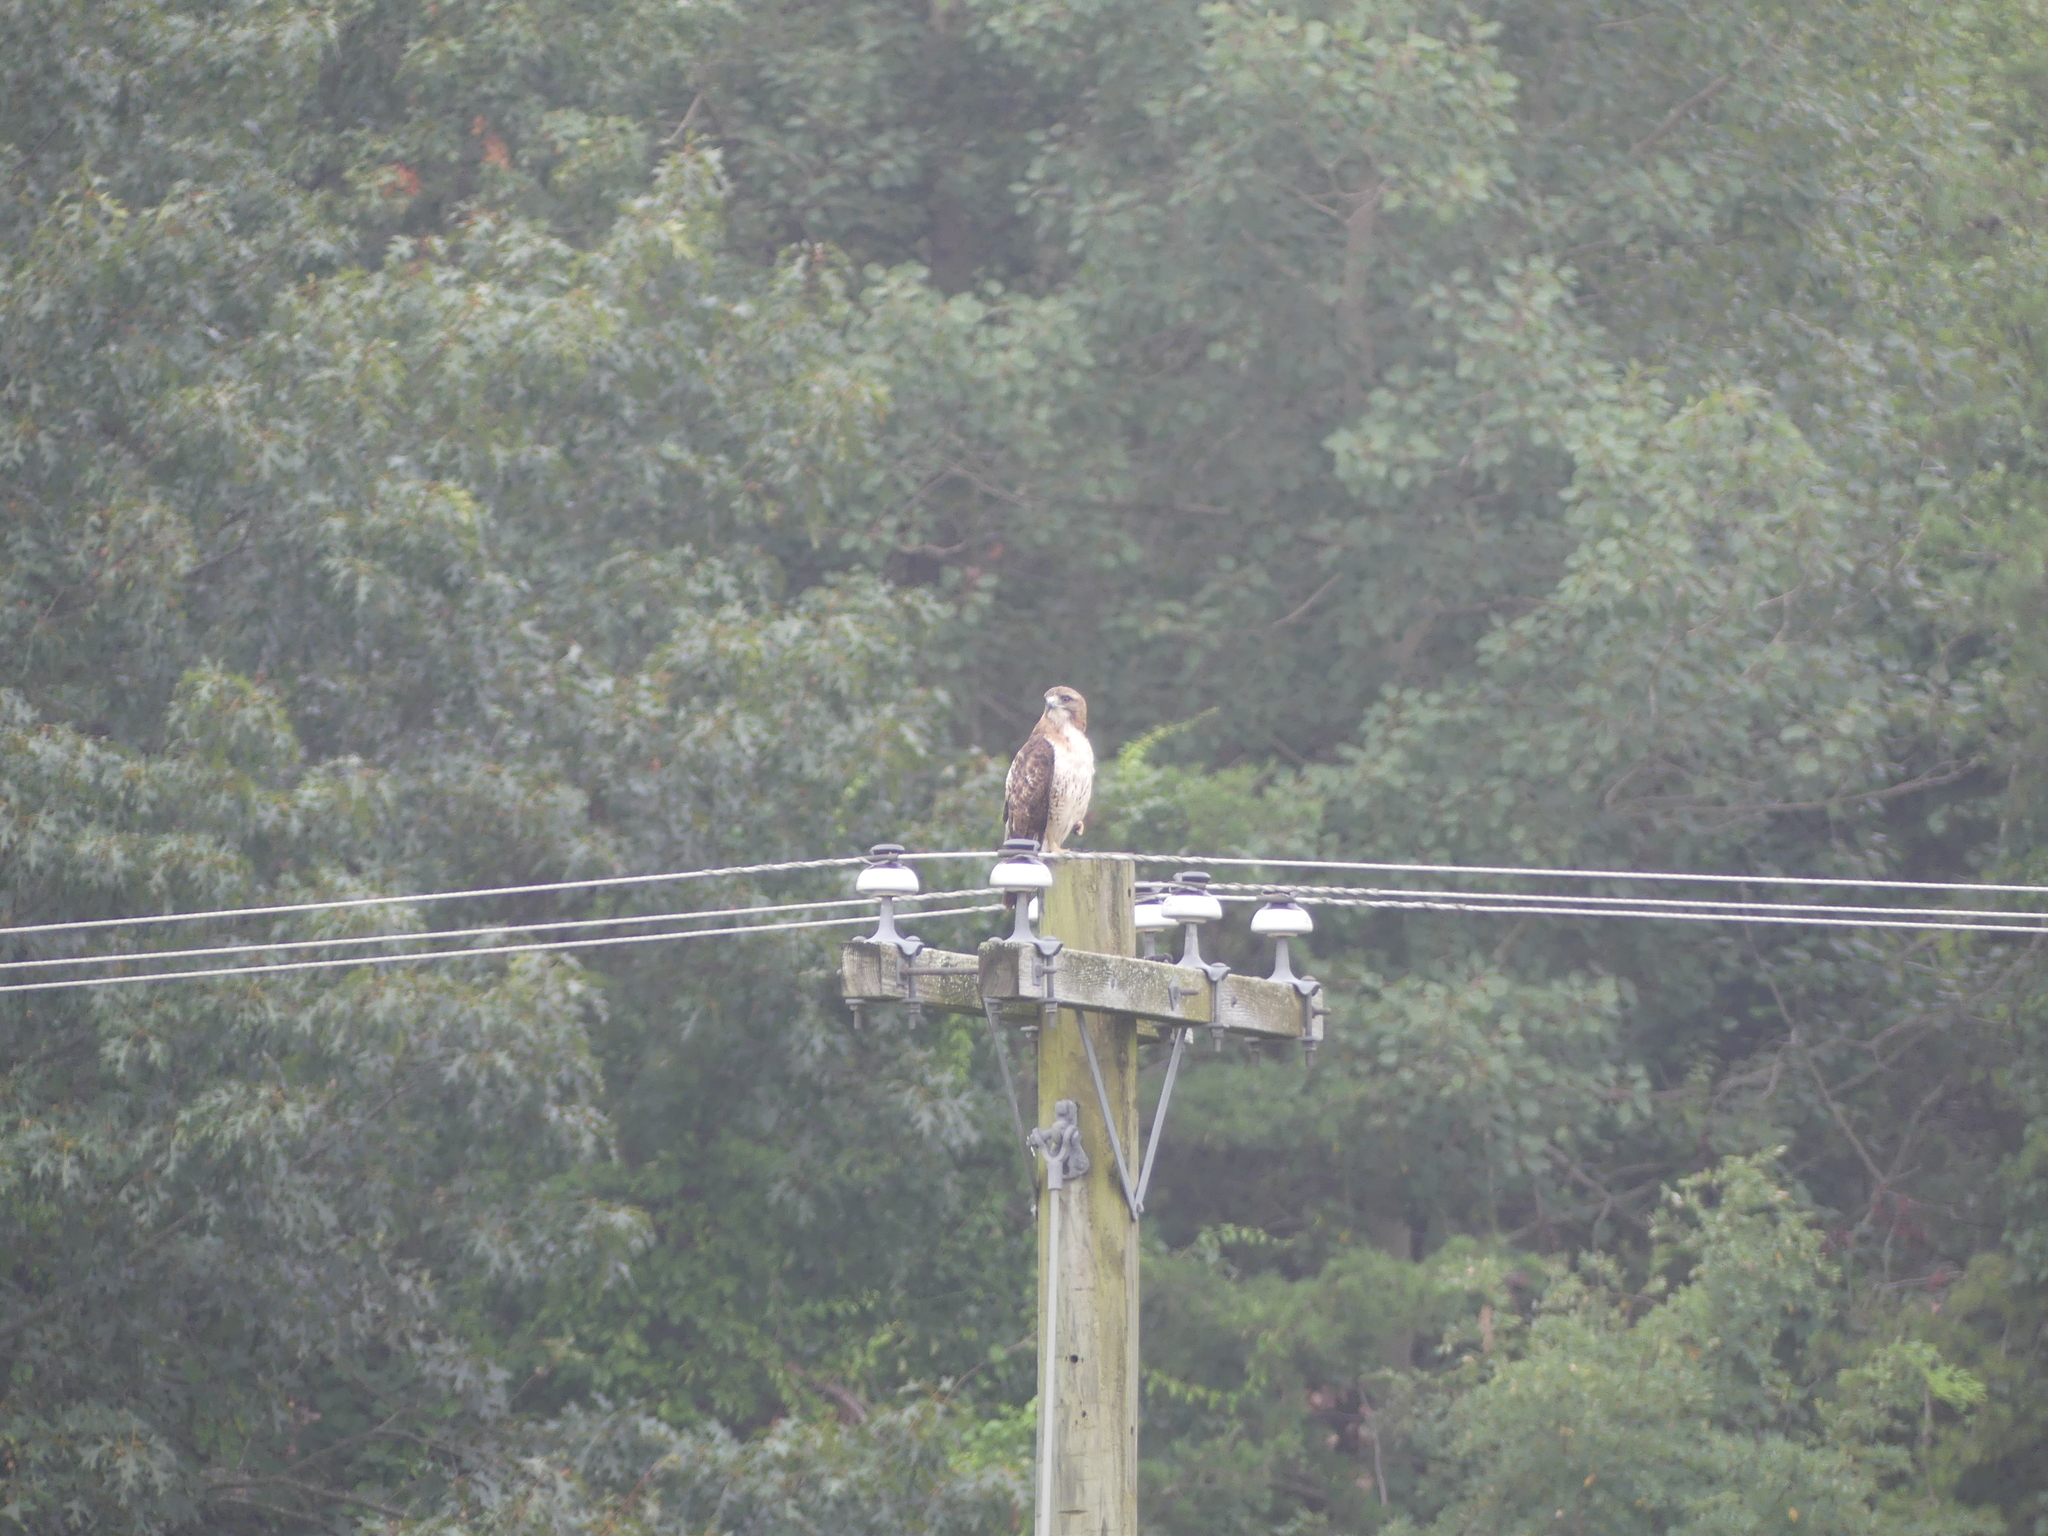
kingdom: Animalia
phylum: Chordata
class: Aves
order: Accipitriformes
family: Accipitridae
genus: Buteo
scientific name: Buteo jamaicensis
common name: Red-tailed hawk
